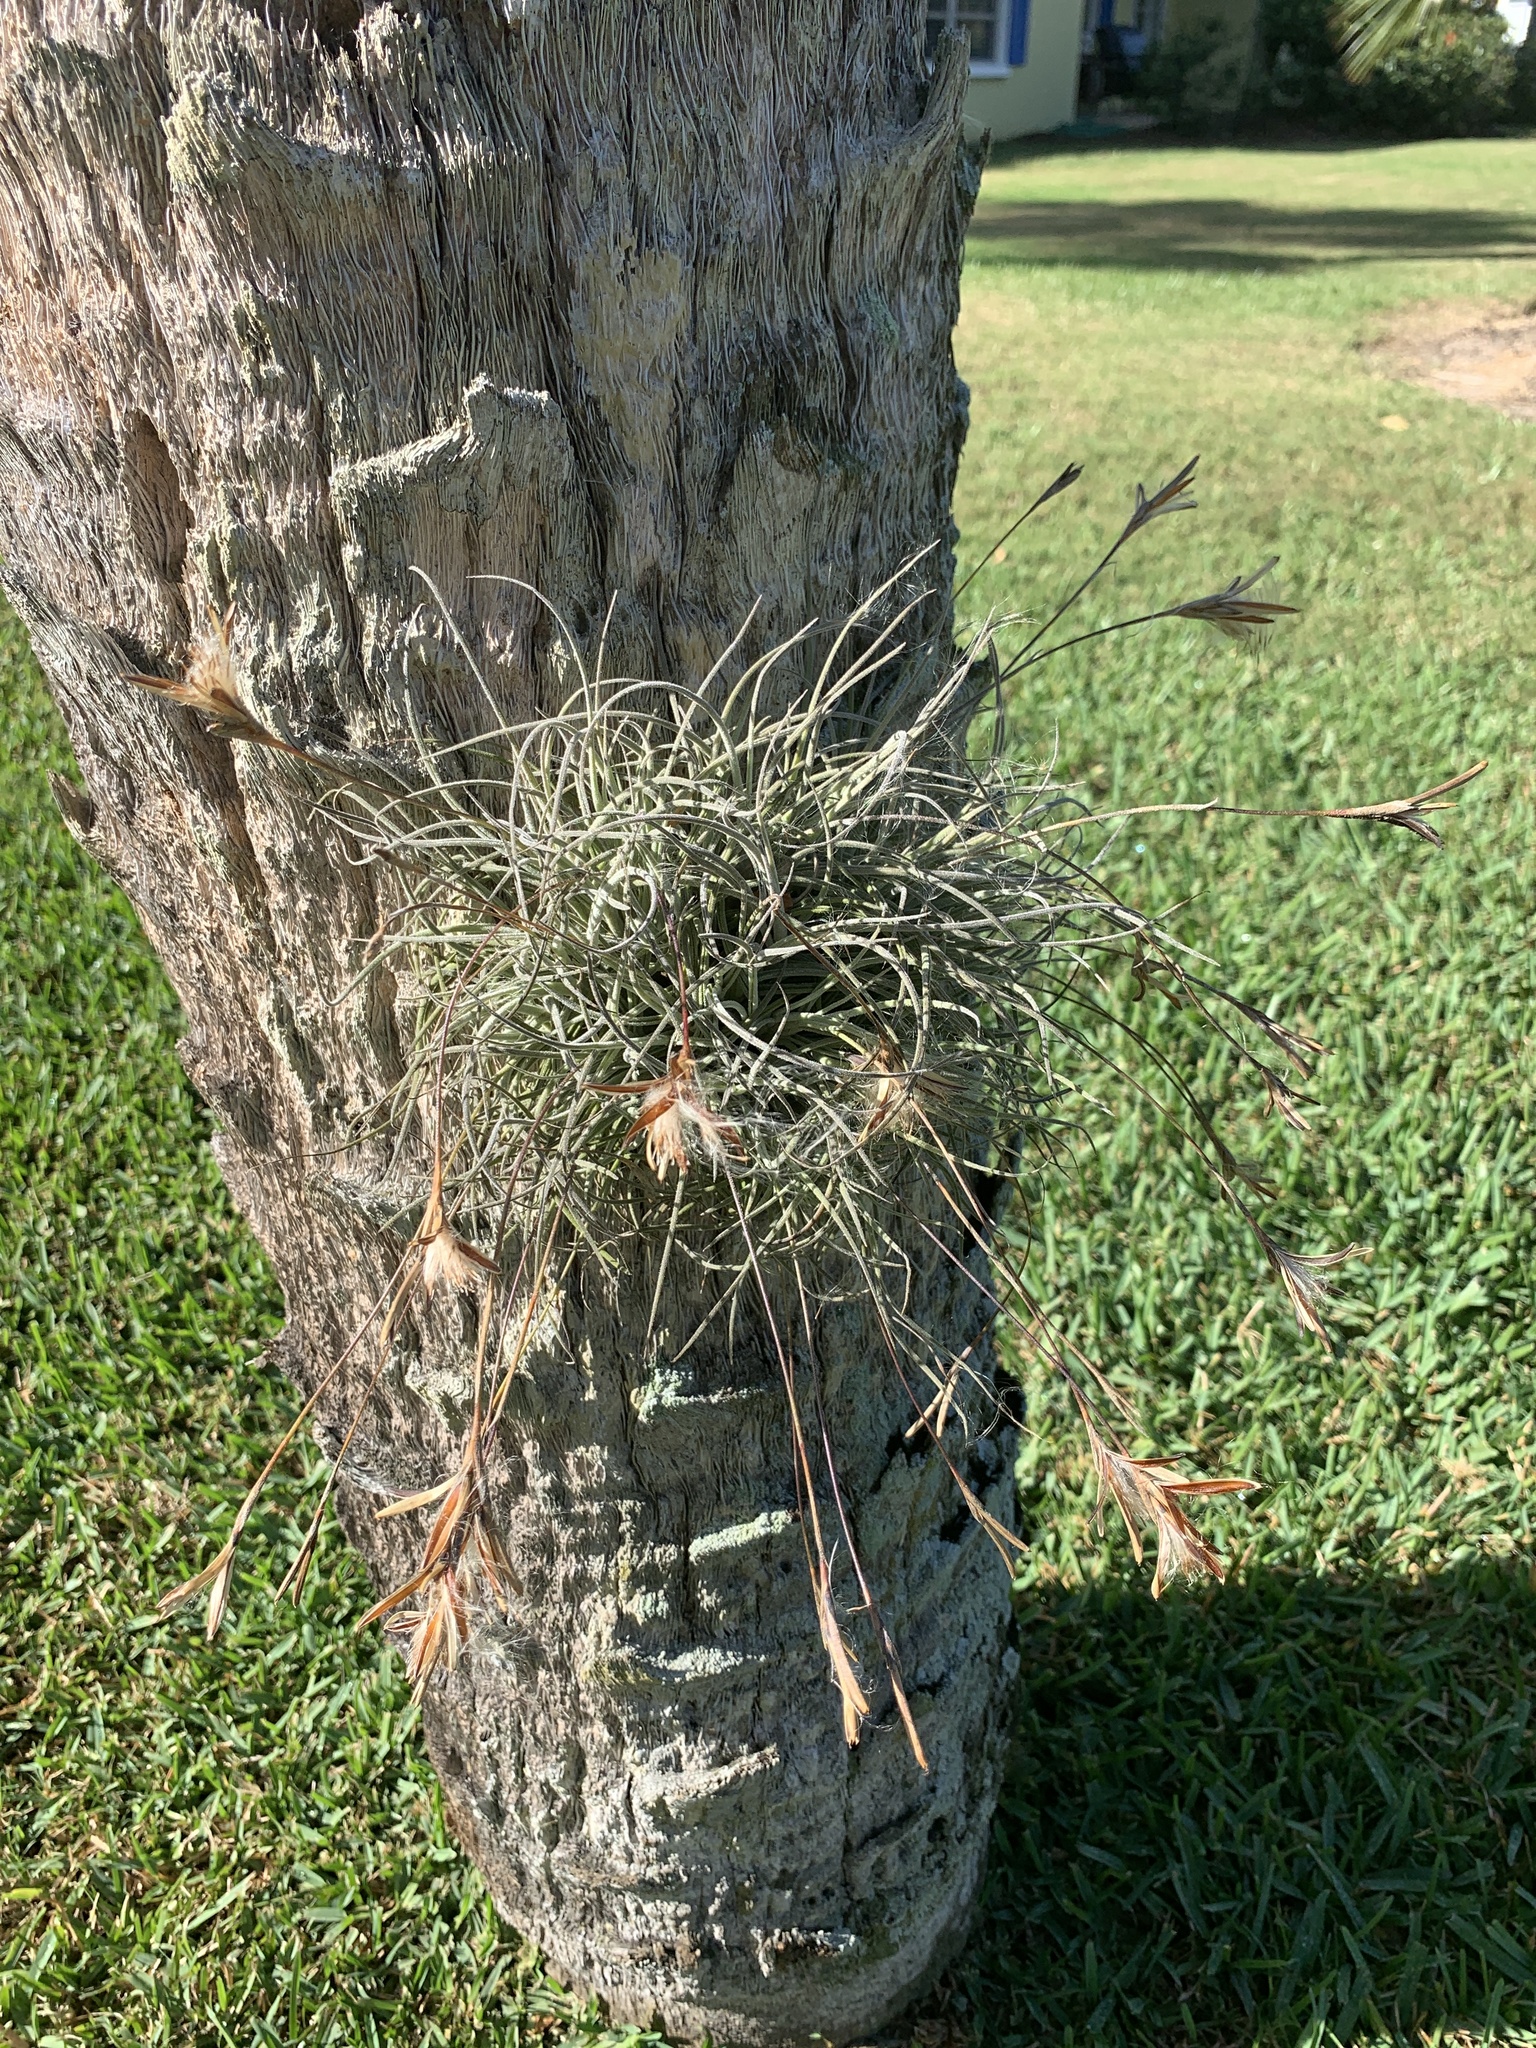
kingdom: Plantae
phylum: Tracheophyta
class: Liliopsida
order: Poales
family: Bromeliaceae
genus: Tillandsia
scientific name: Tillandsia recurvata
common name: Small ballmoss
